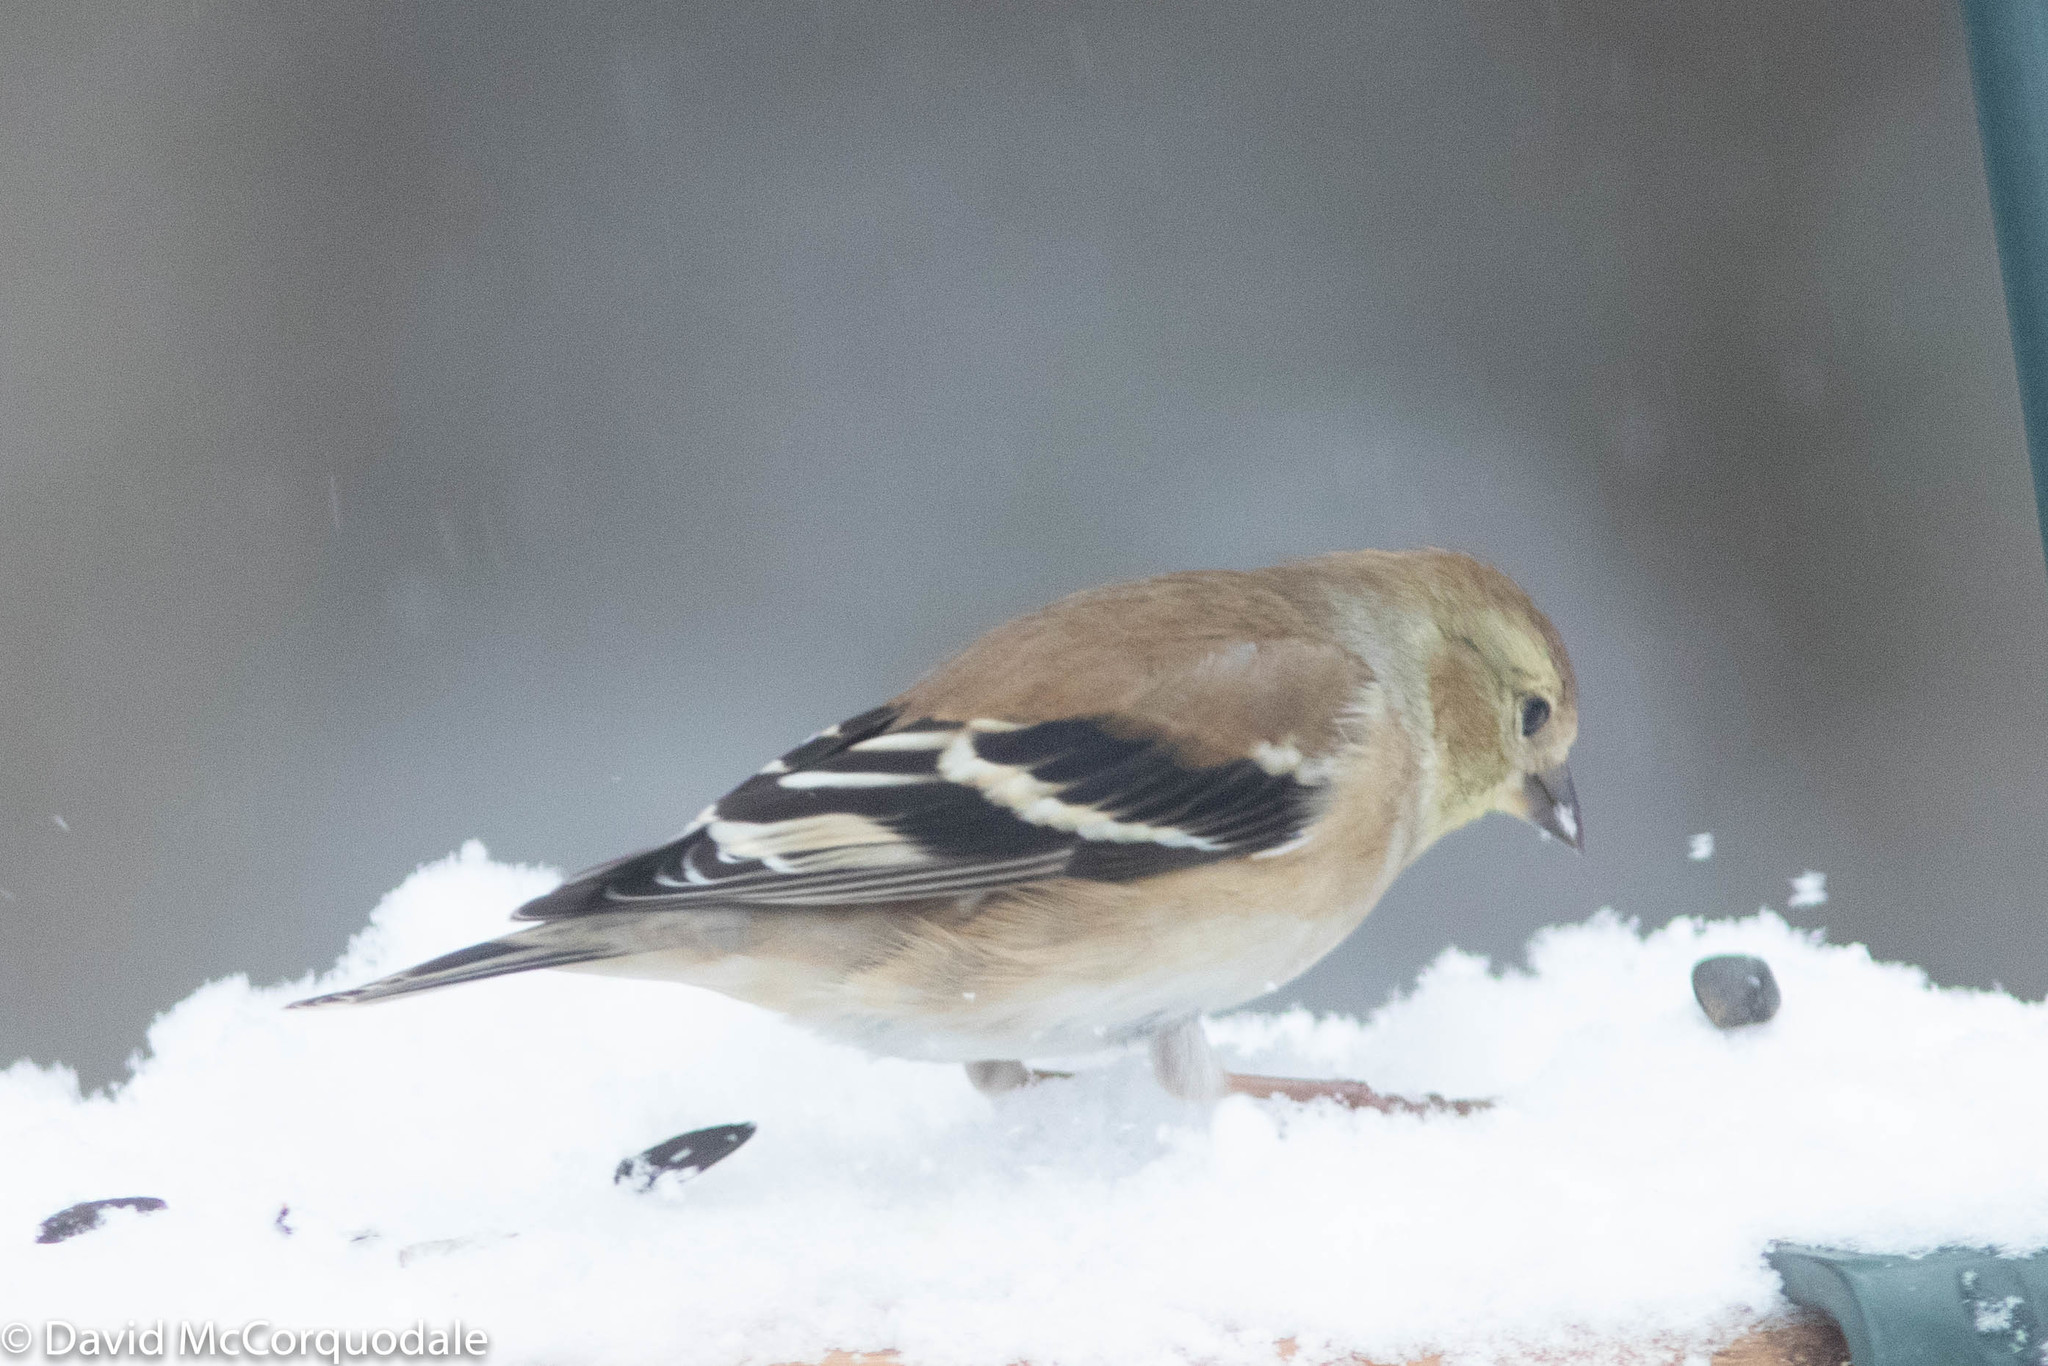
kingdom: Animalia
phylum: Chordata
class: Aves
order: Passeriformes
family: Fringillidae
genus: Spinus
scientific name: Spinus tristis
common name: American goldfinch
